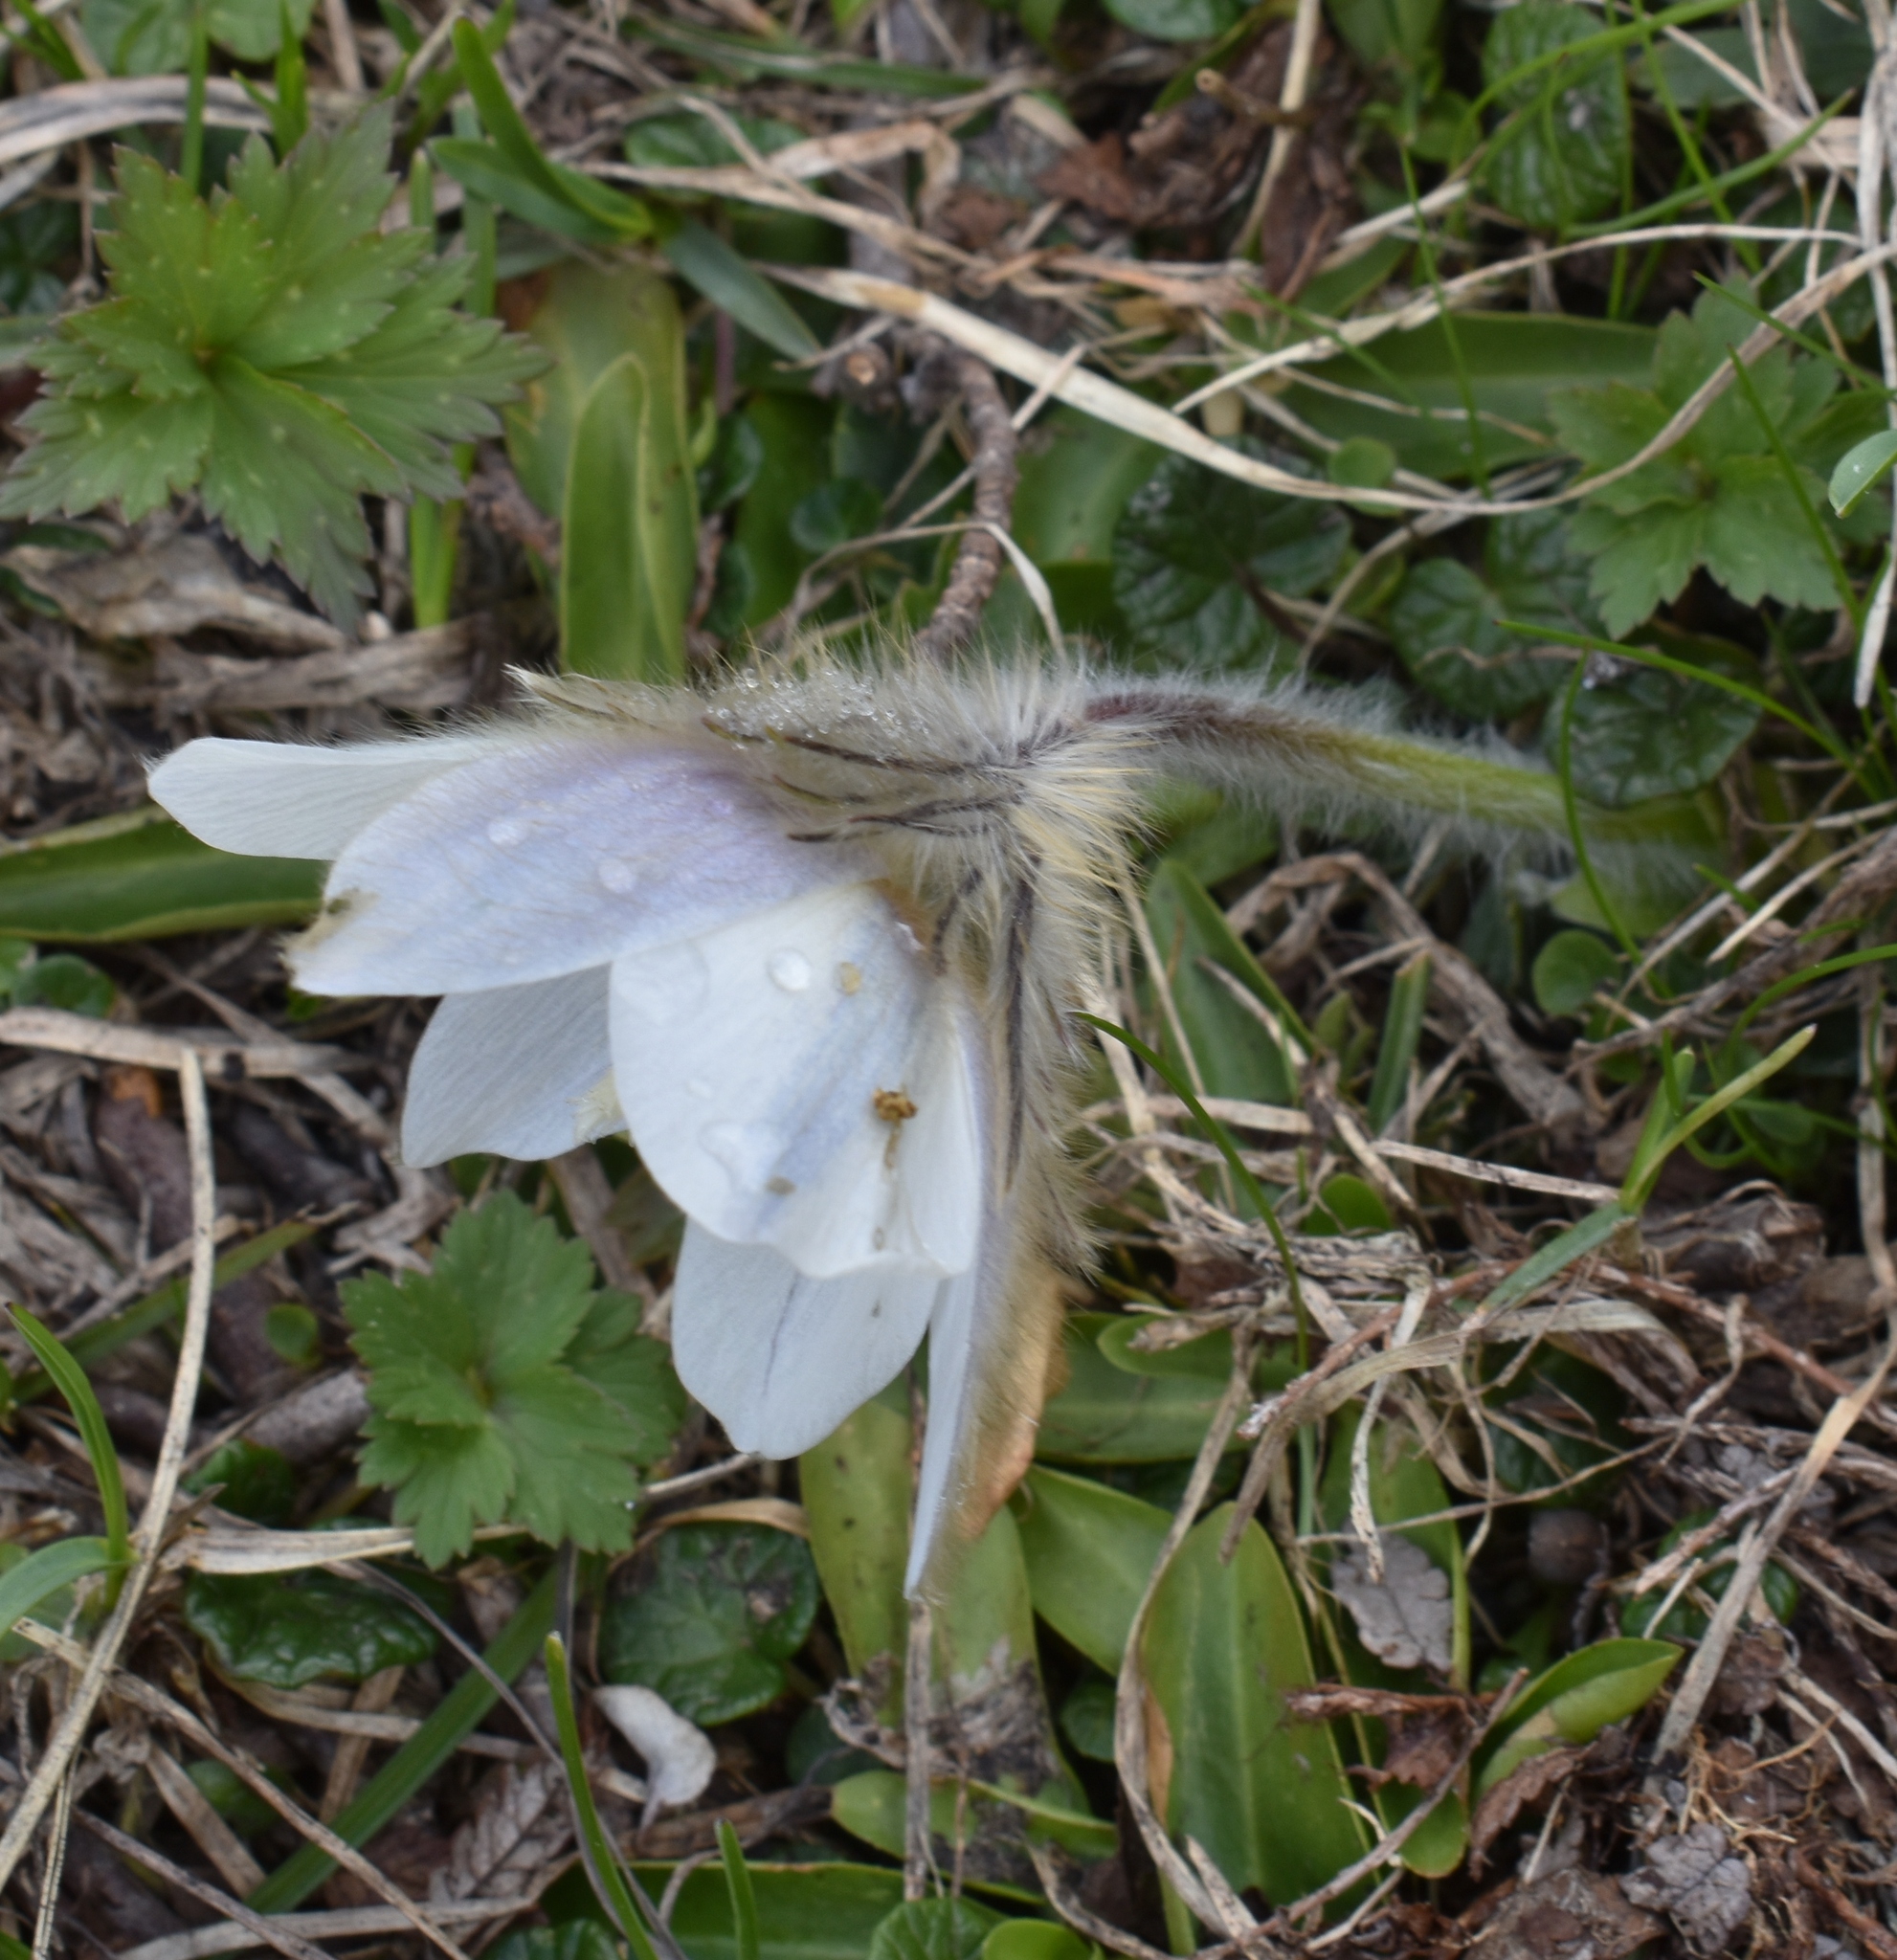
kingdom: Plantae
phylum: Tracheophyta
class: Magnoliopsida
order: Ranunculales
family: Ranunculaceae
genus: Pulsatilla
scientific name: Pulsatilla vernalis
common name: Spring pasque flower
